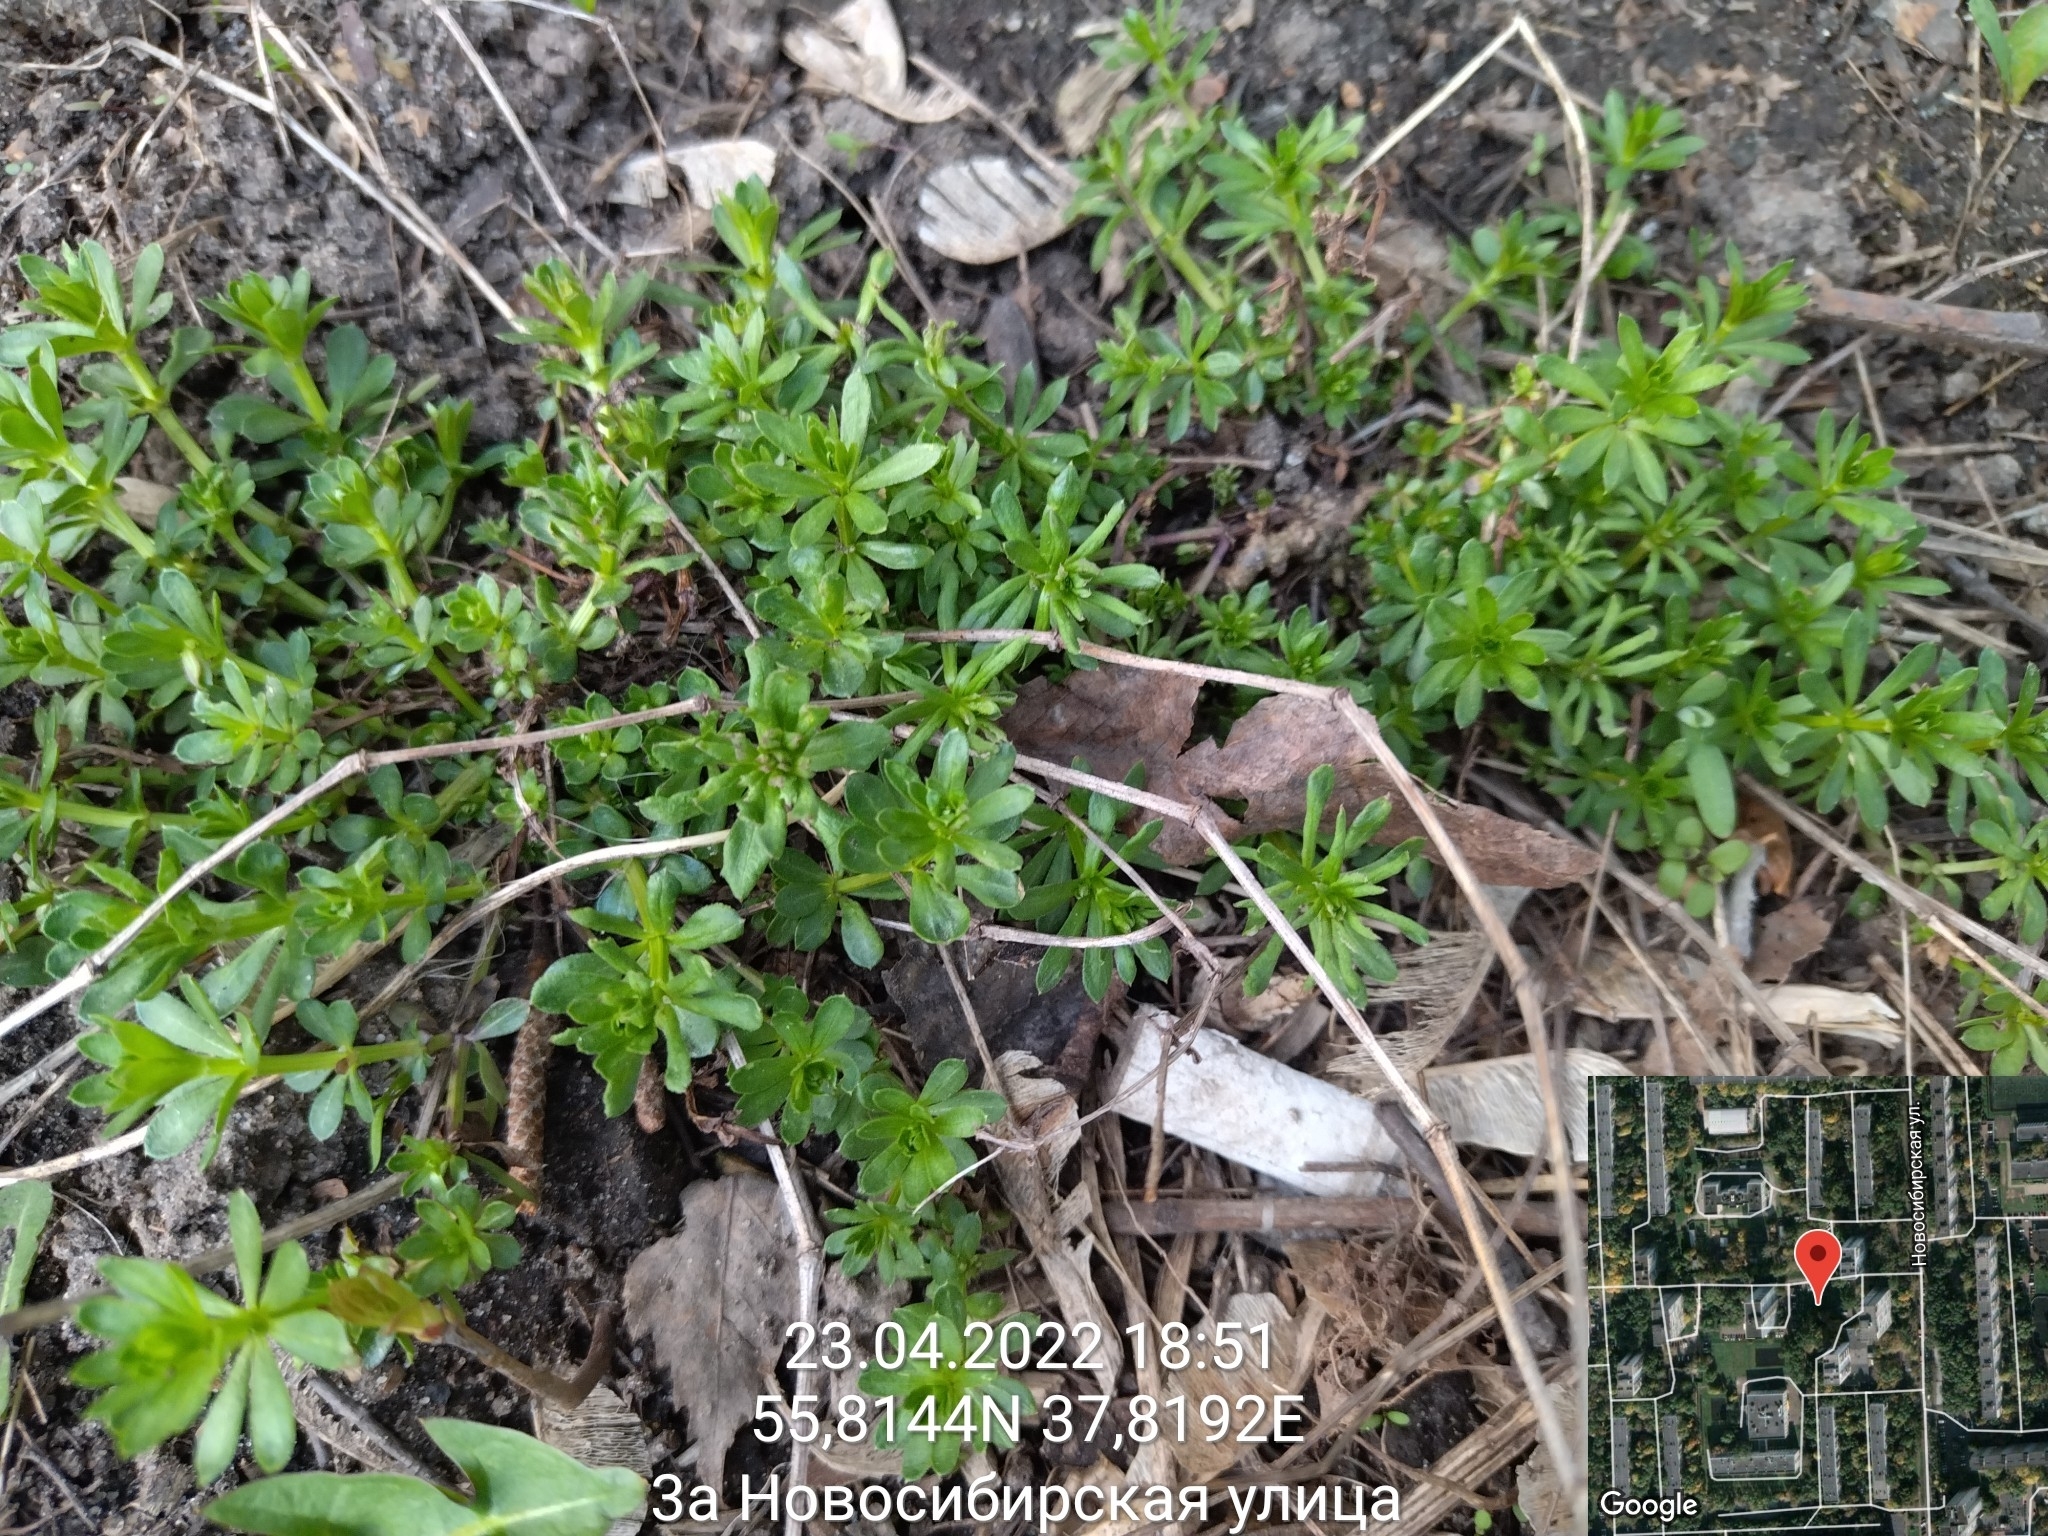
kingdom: Plantae
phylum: Tracheophyta
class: Magnoliopsida
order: Gentianales
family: Rubiaceae
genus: Galium
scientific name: Galium mollugo
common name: Hedge bedstraw
